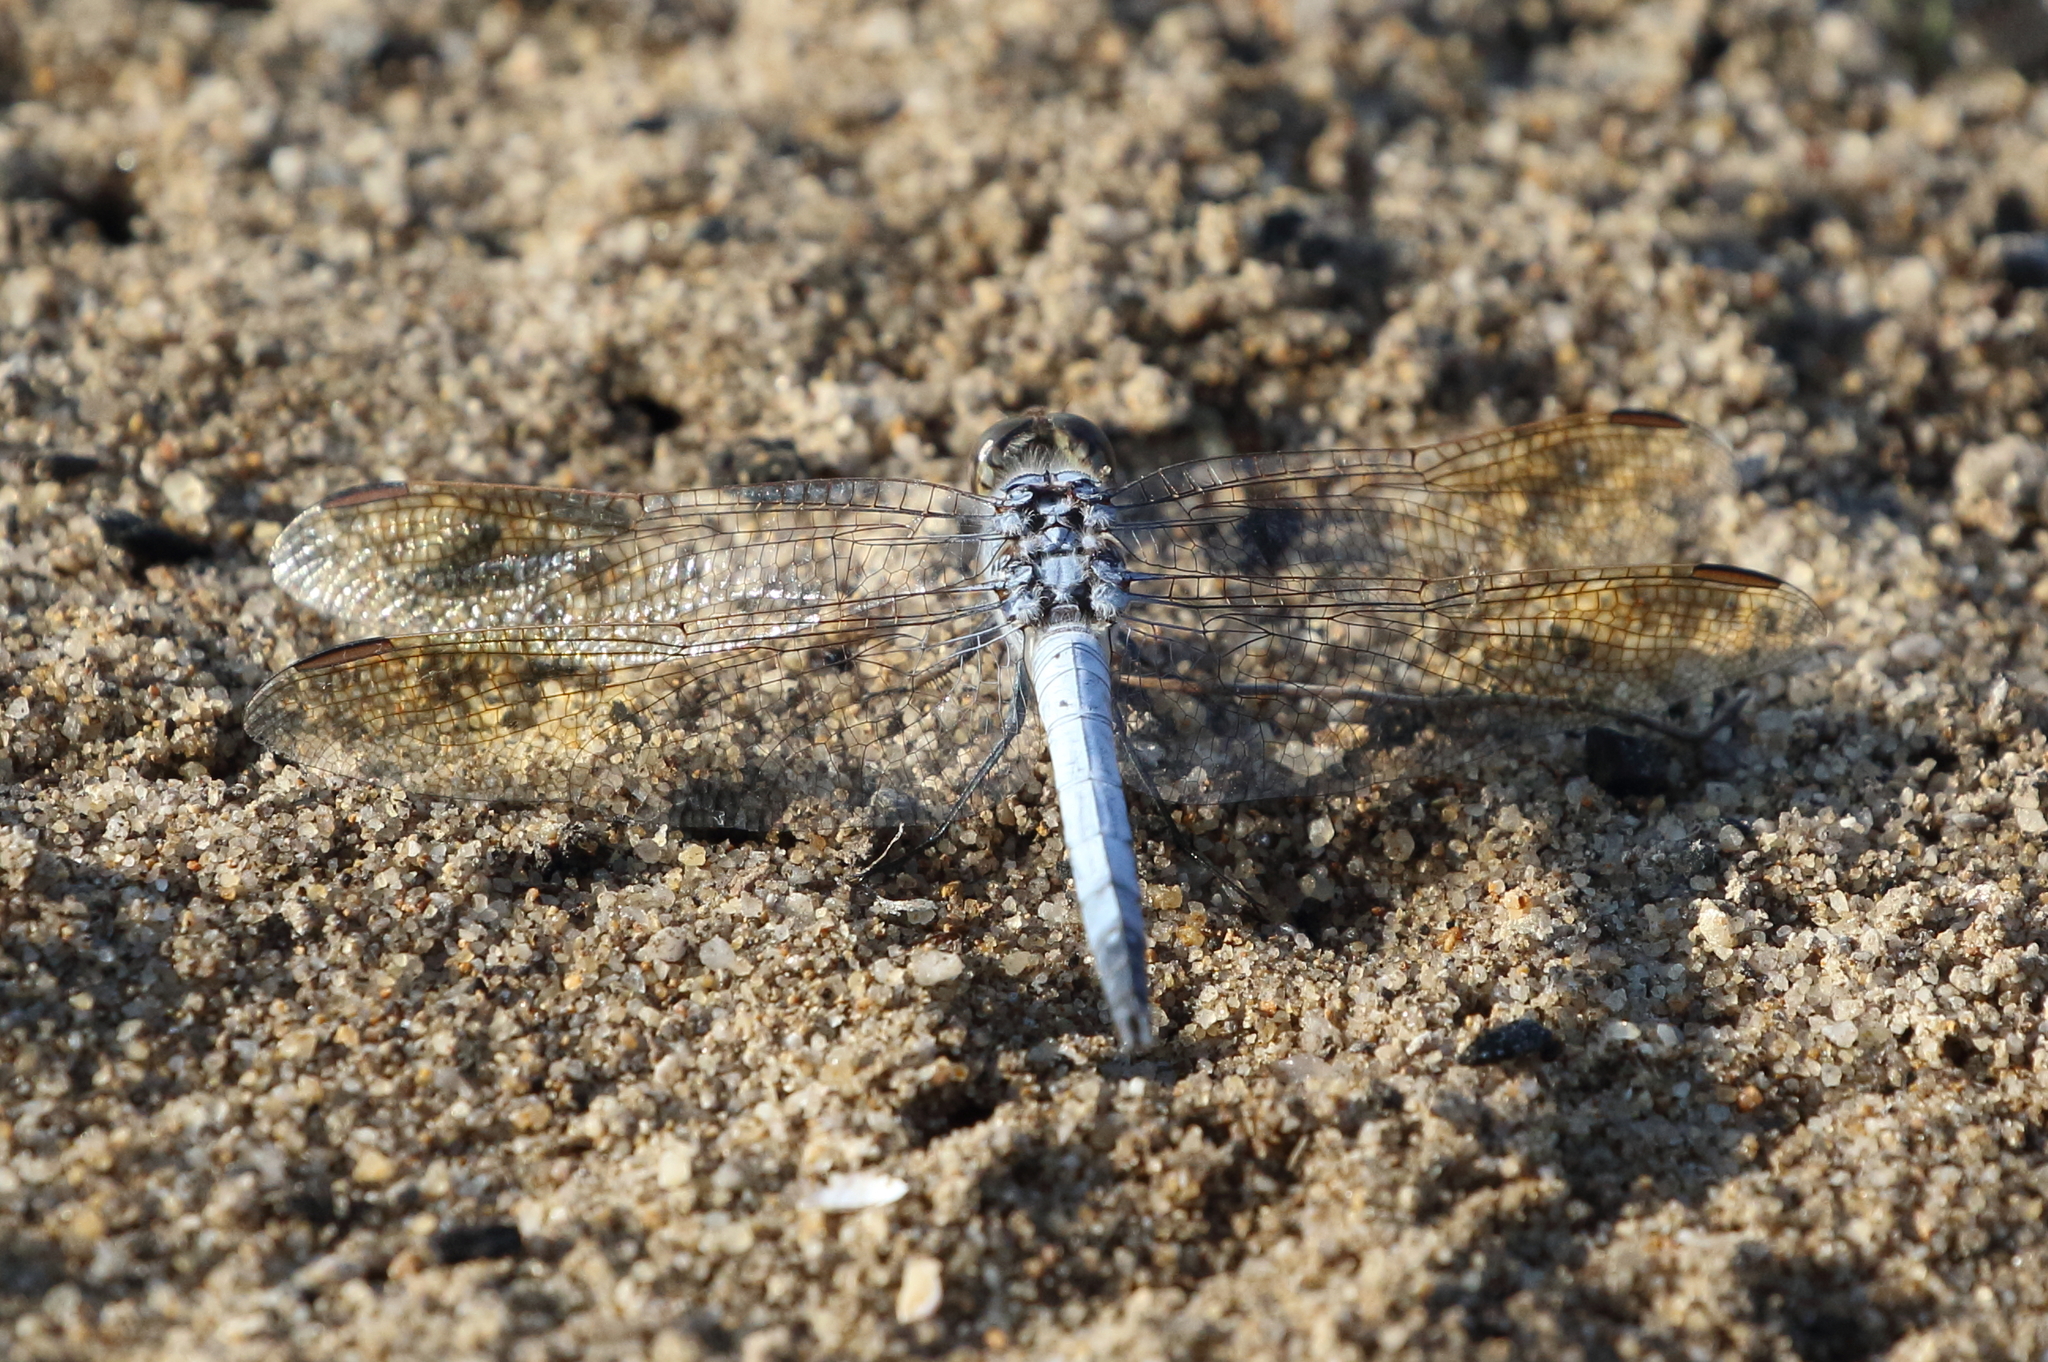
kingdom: Animalia
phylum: Arthropoda
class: Insecta
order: Odonata
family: Libellulidae
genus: Orthetrum
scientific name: Orthetrum caledonicum
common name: Blue skimmer
